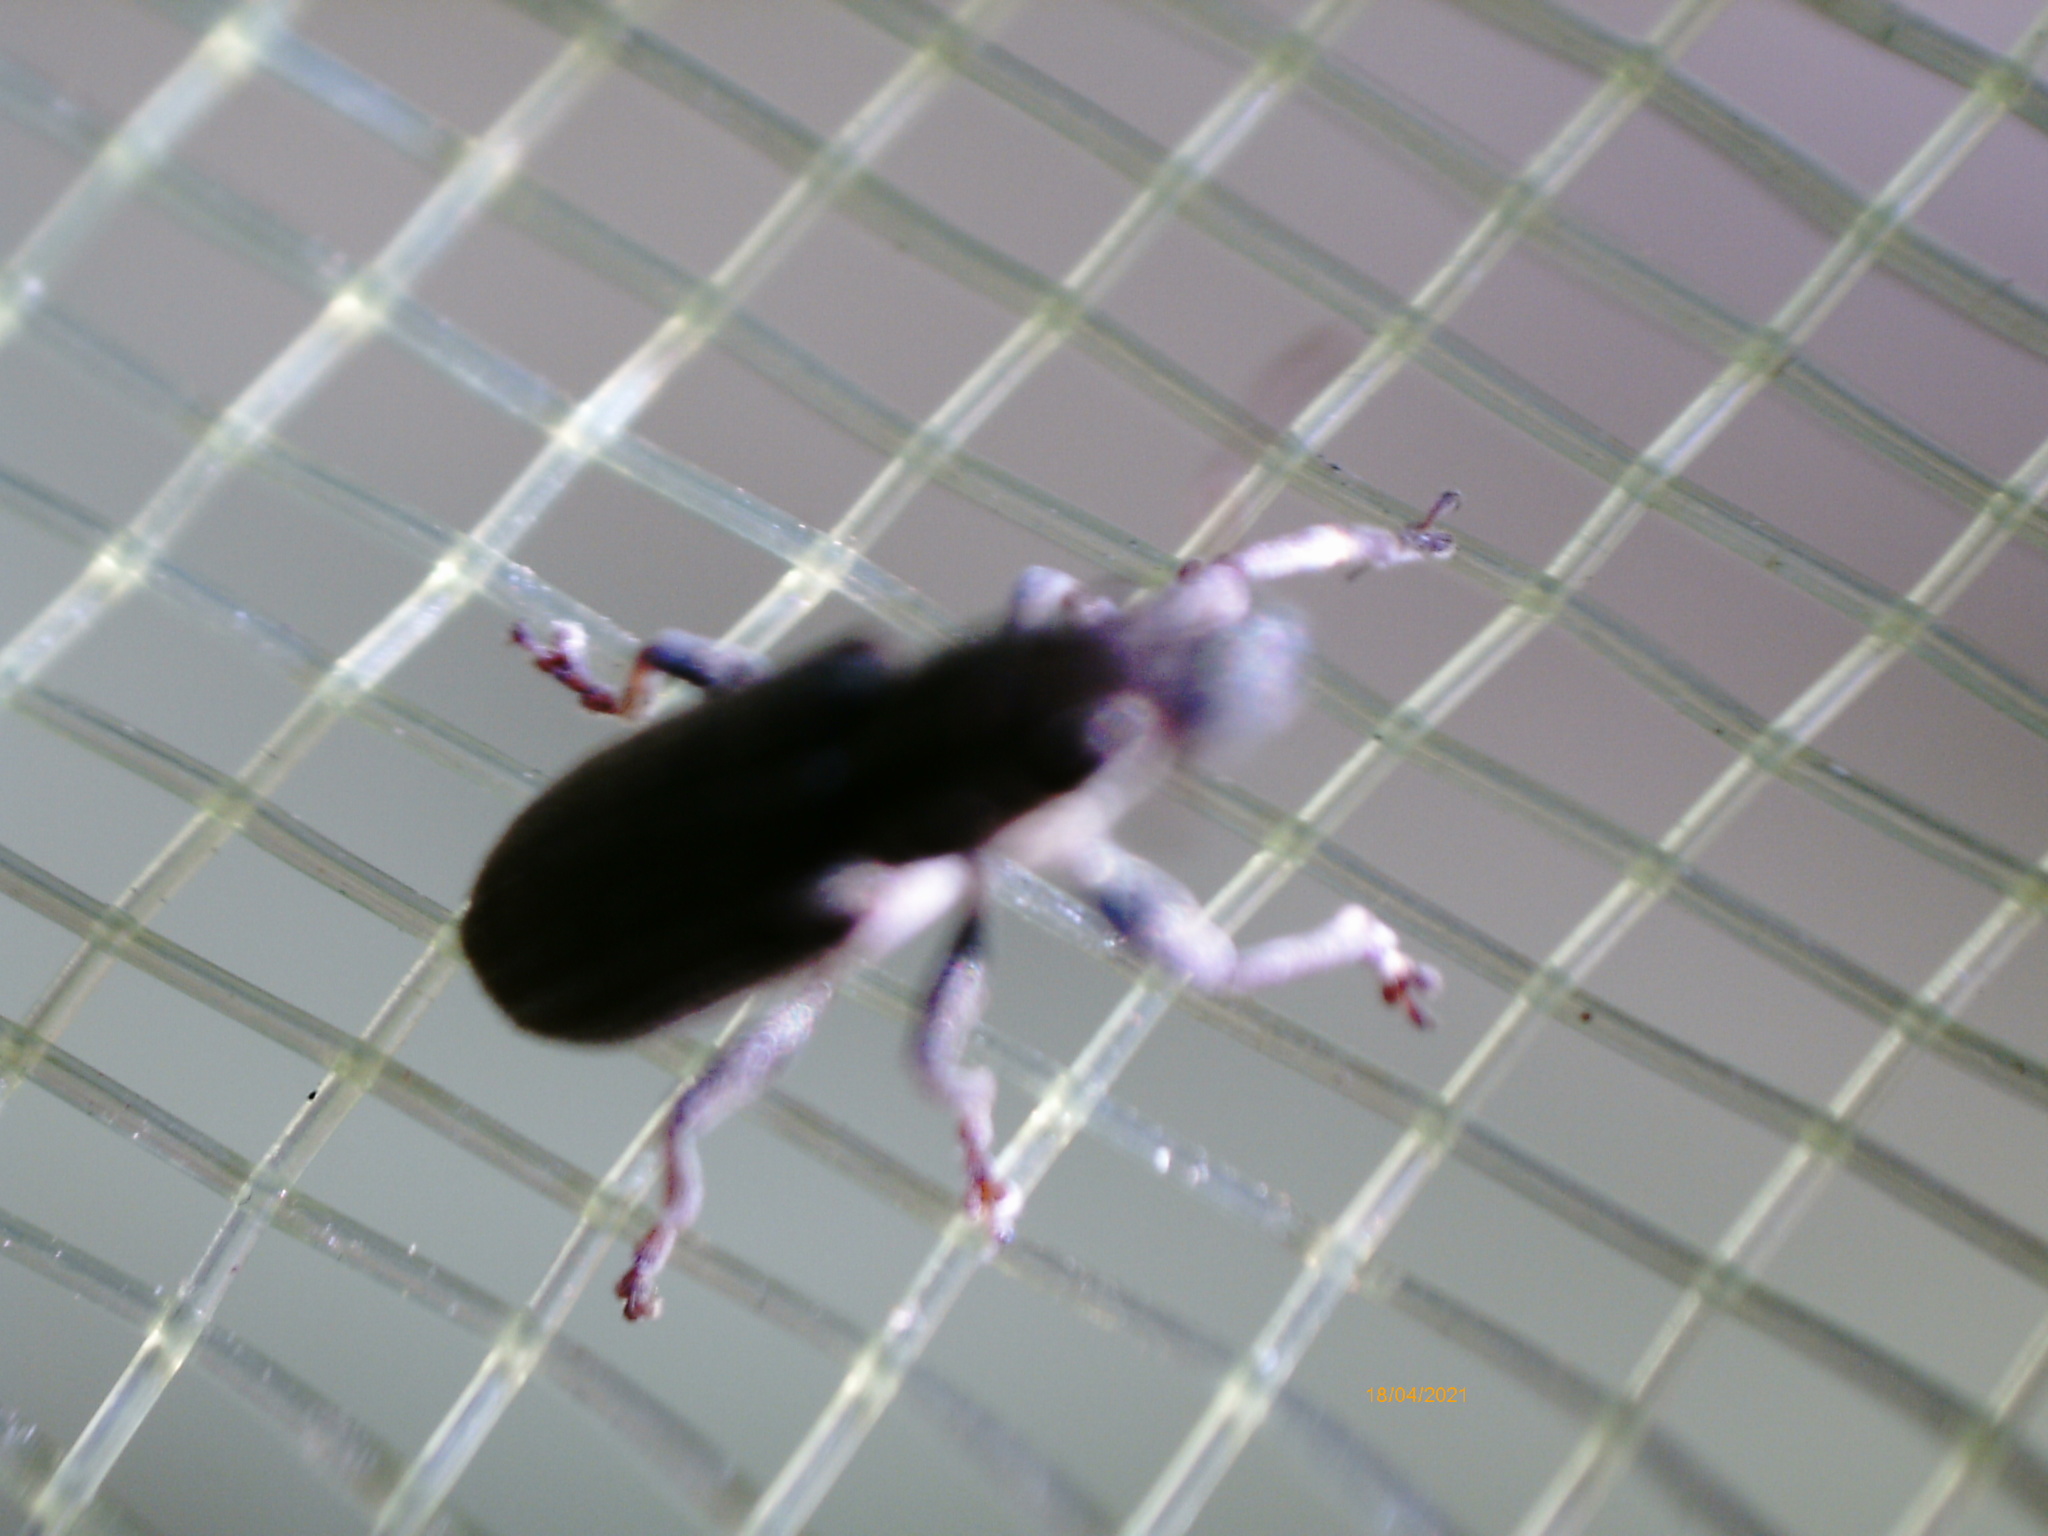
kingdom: Animalia
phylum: Arthropoda
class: Insecta
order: Coleoptera
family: Curculionidae
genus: Sitona
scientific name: Sitona lineatus
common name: Weevil
